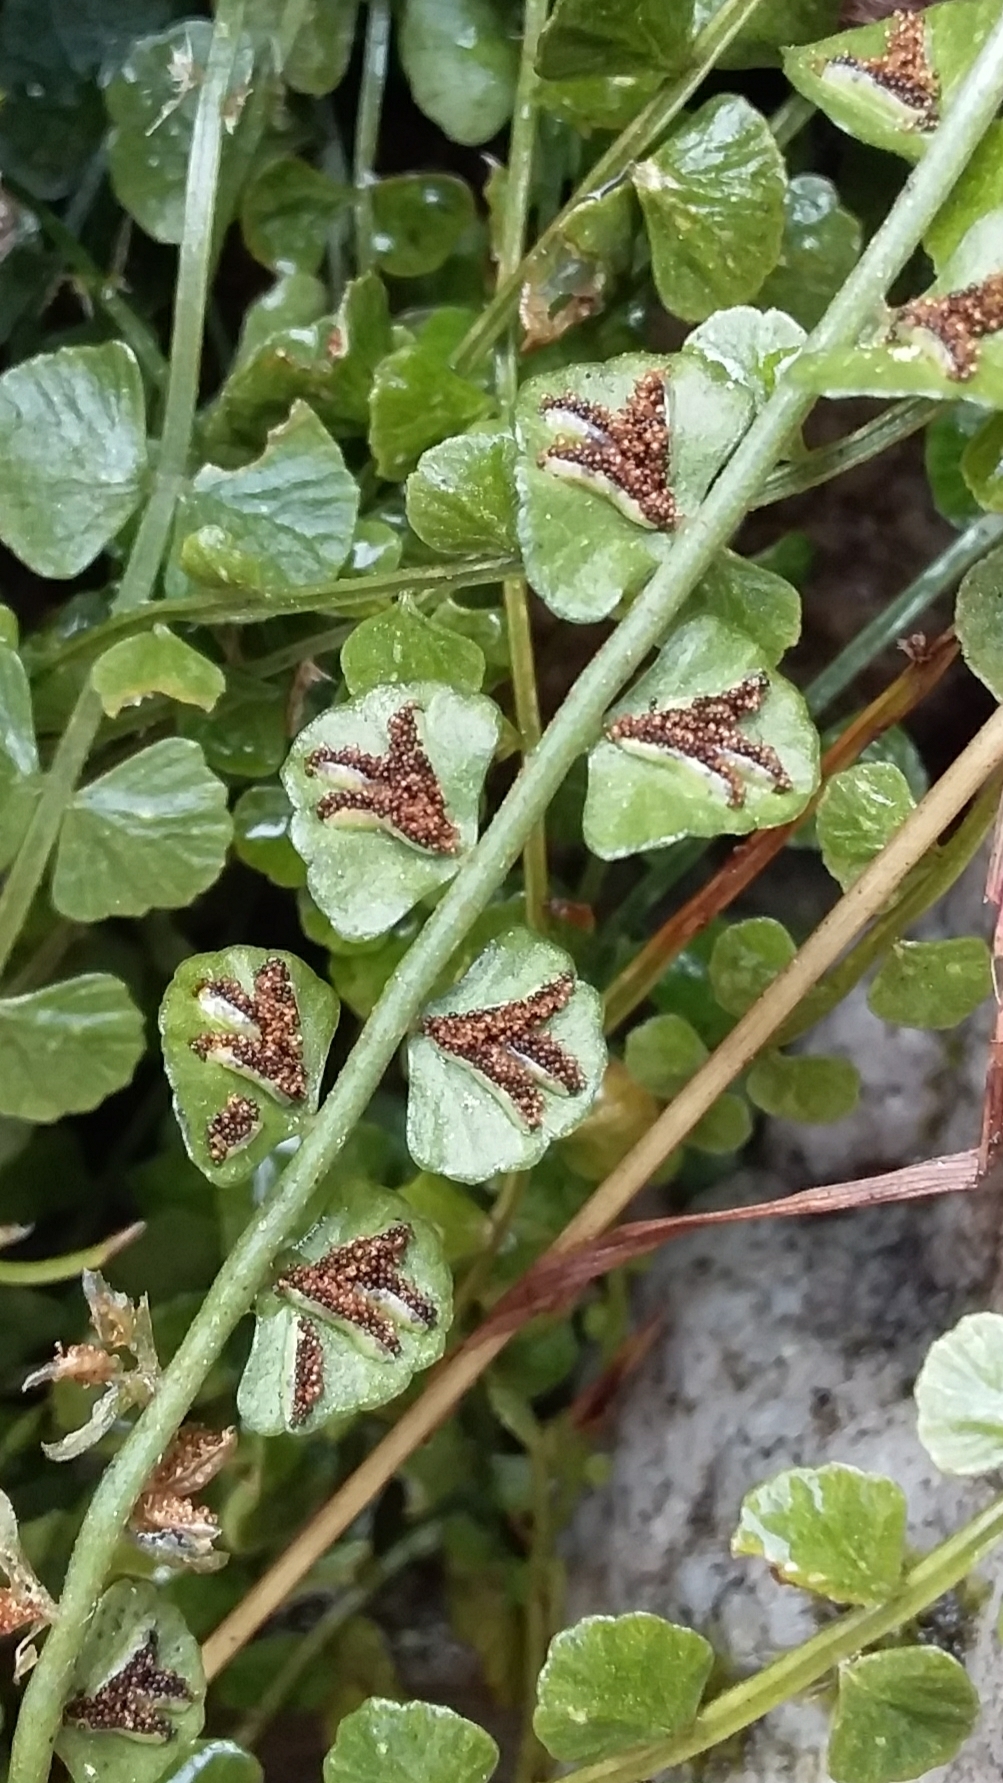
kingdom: Plantae
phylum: Tracheophyta
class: Polypodiopsida
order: Polypodiales
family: Aspleniaceae
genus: Asplenium
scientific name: Asplenium flabellifolium
